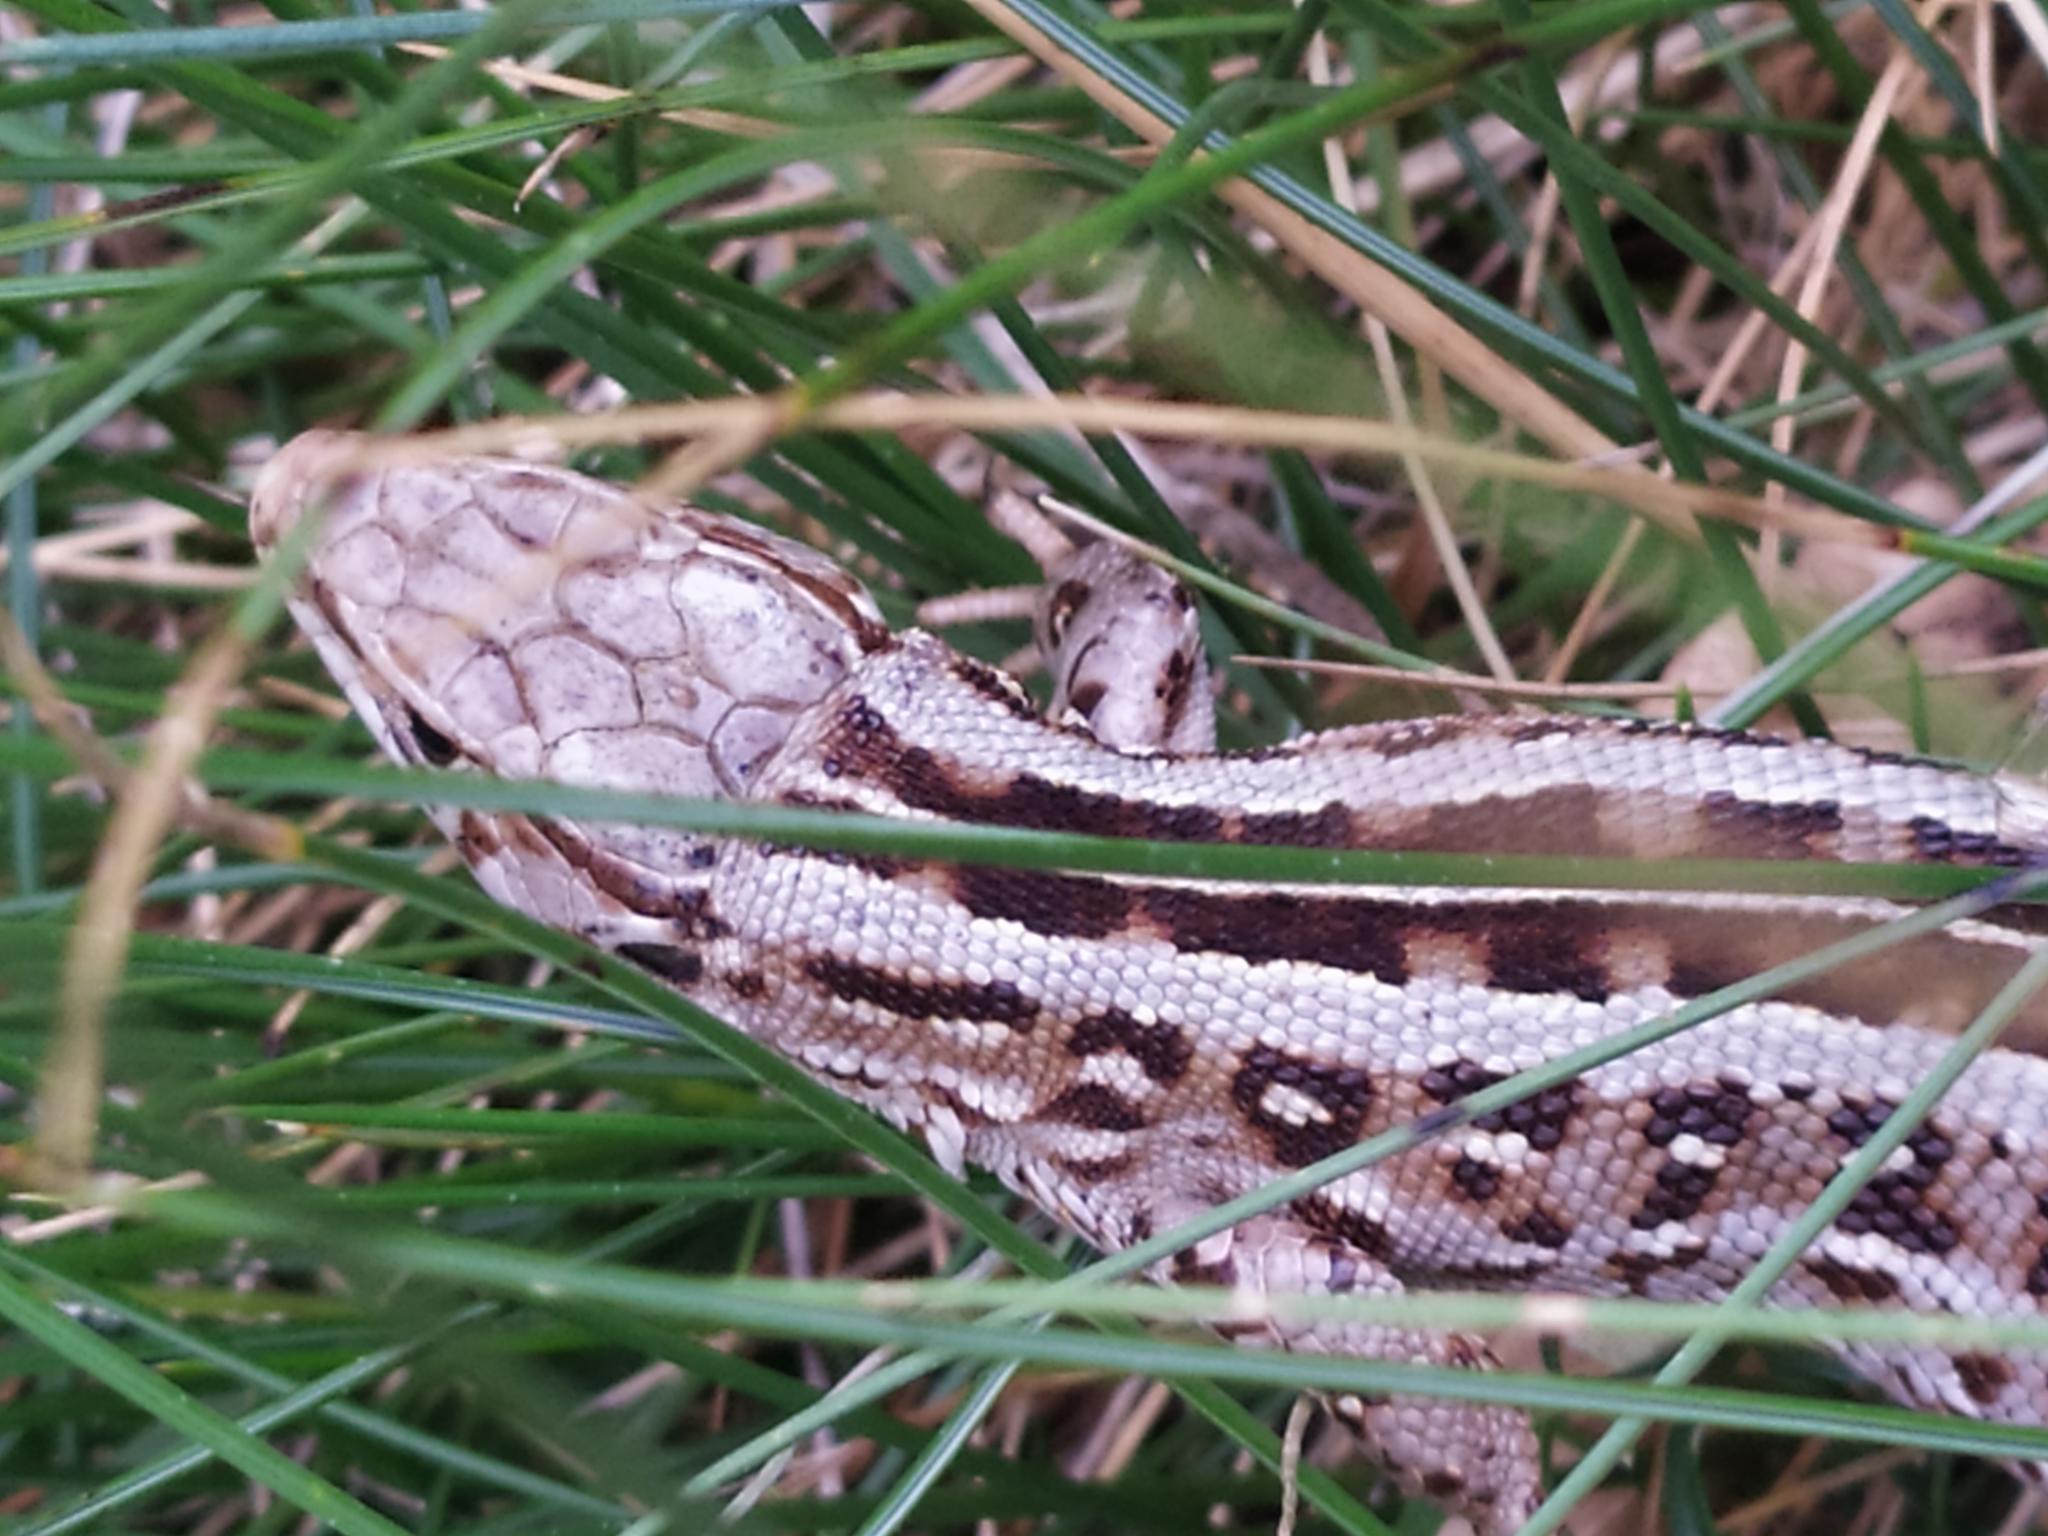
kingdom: Animalia
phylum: Chordata
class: Squamata
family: Lacertidae
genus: Lacerta
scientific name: Lacerta agilis
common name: Sand lizard
